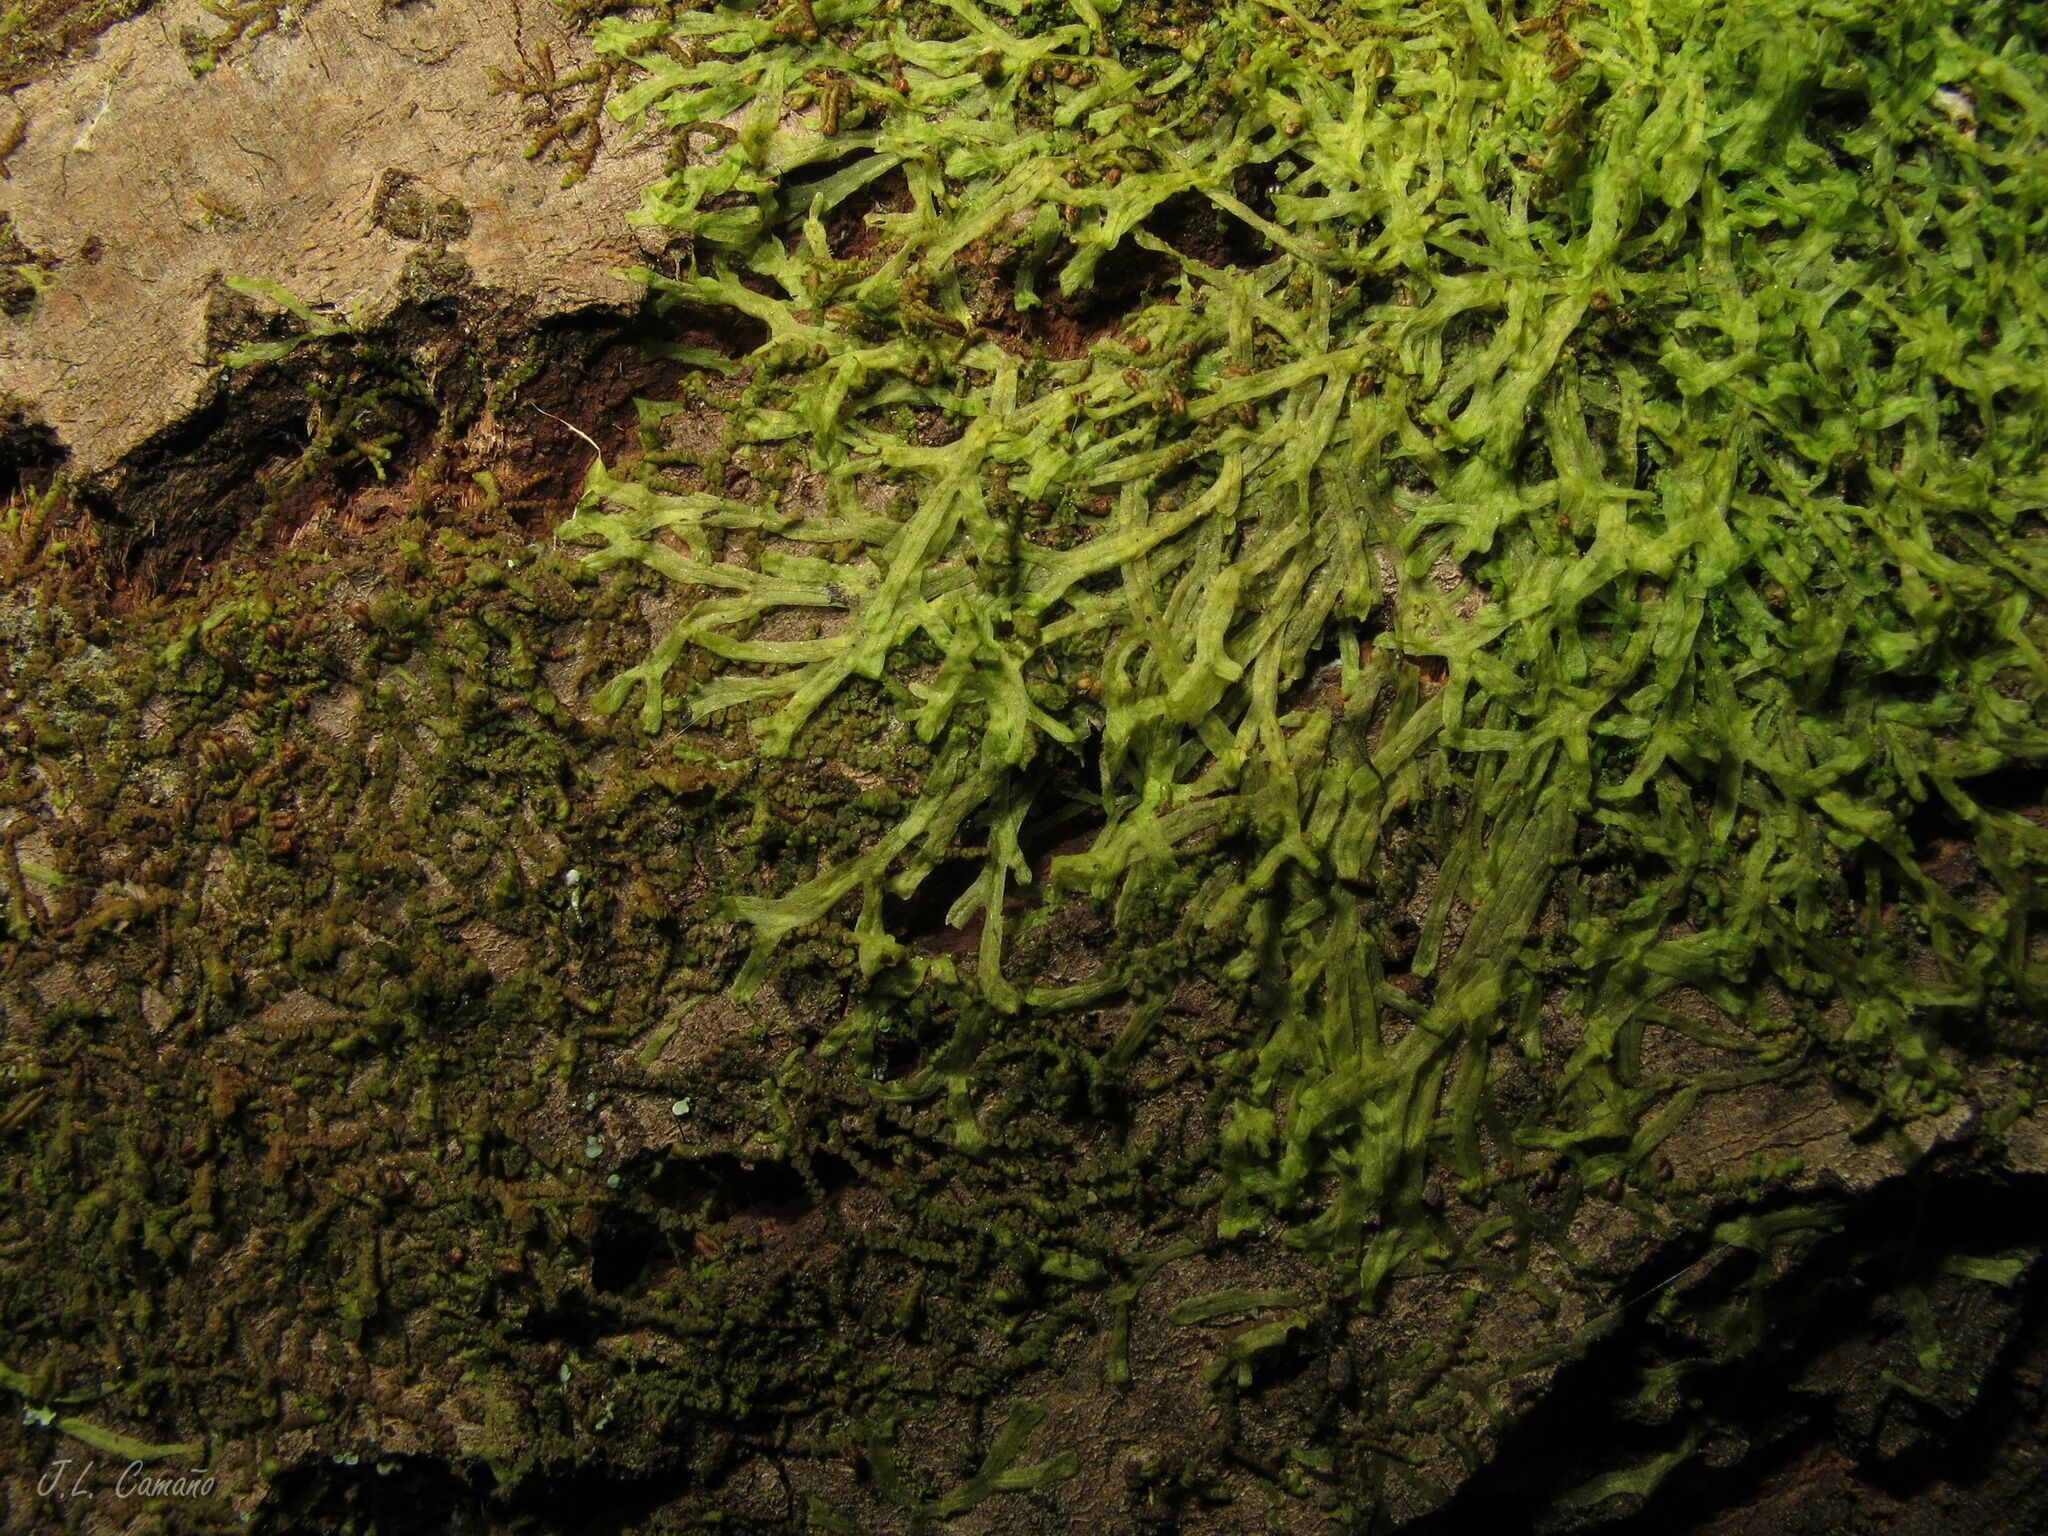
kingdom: Plantae
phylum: Marchantiophyta
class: Jungermanniopsida
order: Metzgeriales
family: Metzgeriaceae
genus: Metzgeria
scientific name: Metzgeria furcata
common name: Forked veilwort
